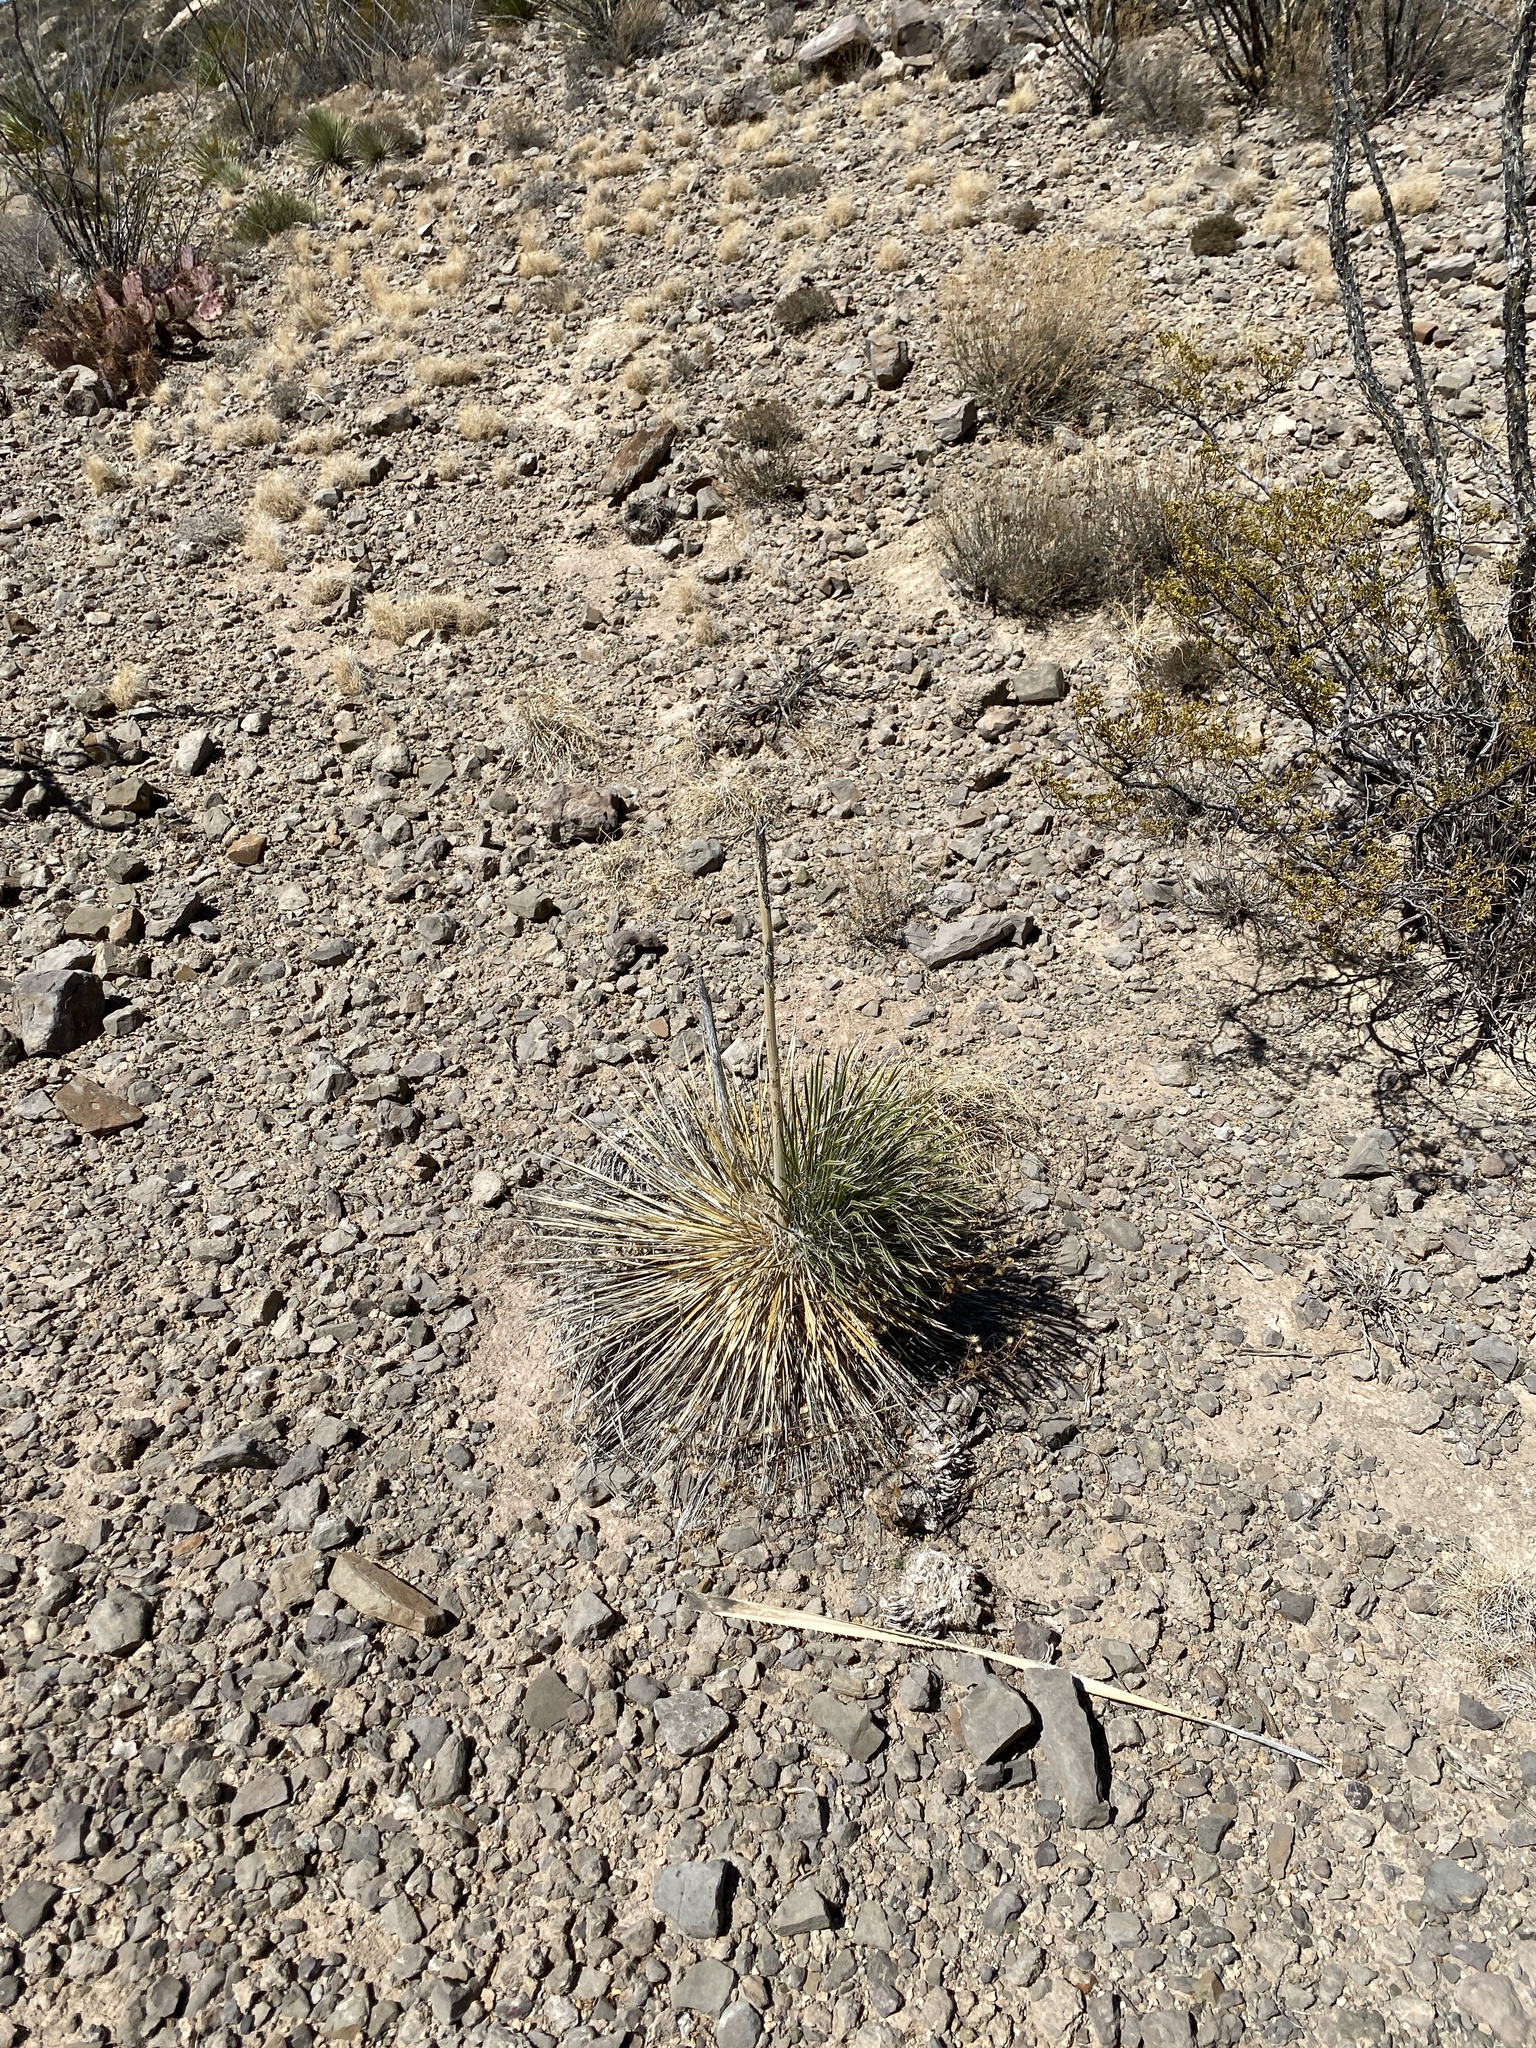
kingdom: Plantae
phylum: Tracheophyta
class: Liliopsida
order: Asparagales
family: Asparagaceae
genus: Yucca
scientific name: Yucca elata
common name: Palmella
